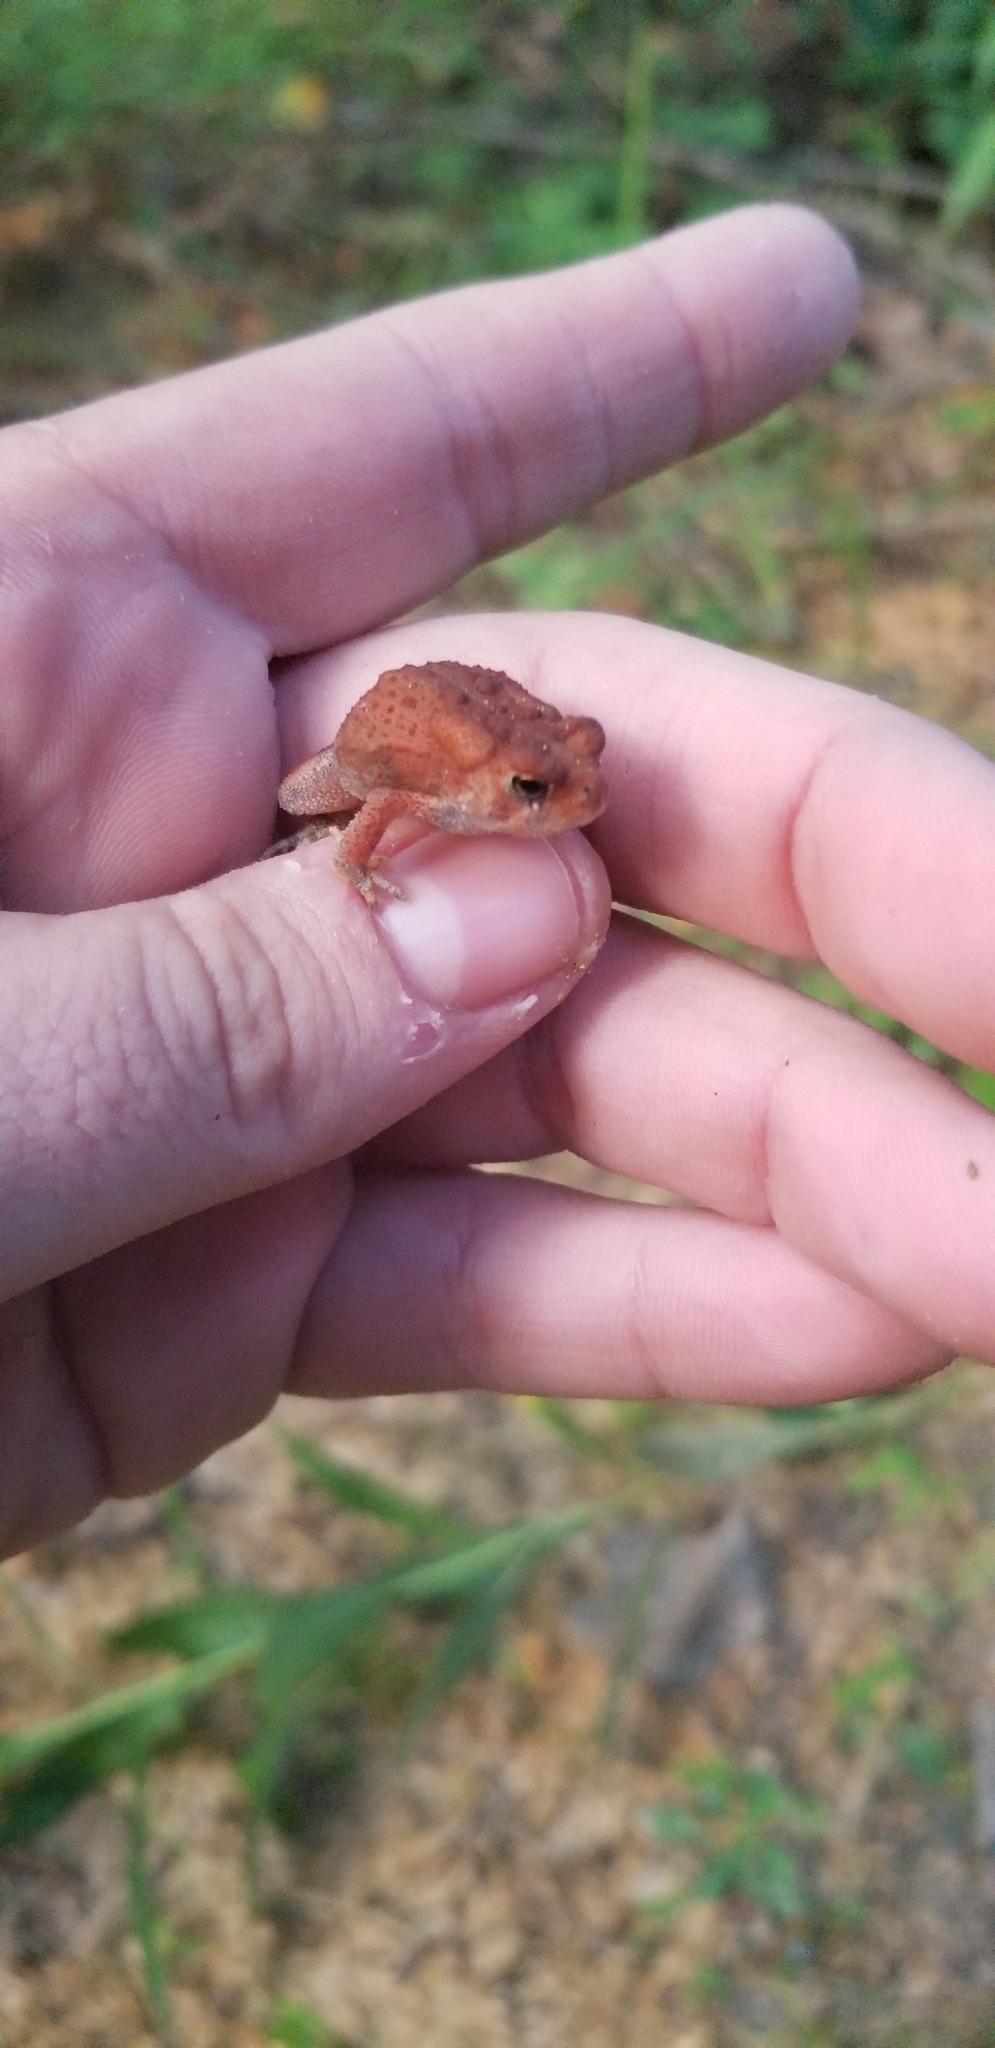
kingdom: Animalia
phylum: Chordata
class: Amphibia
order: Anura
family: Bufonidae
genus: Anaxyrus
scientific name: Anaxyrus americanus
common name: American toad
